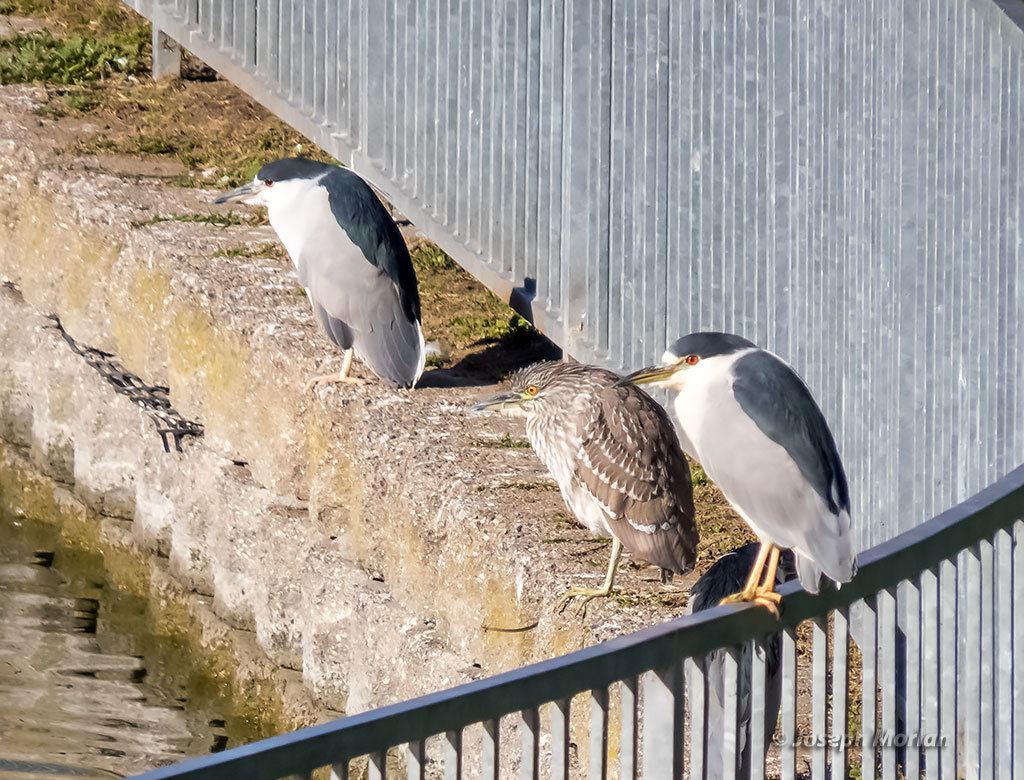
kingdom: Animalia
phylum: Chordata
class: Aves
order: Pelecaniformes
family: Ardeidae
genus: Nycticorax
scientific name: Nycticorax nycticorax
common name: Black-crowned night heron
